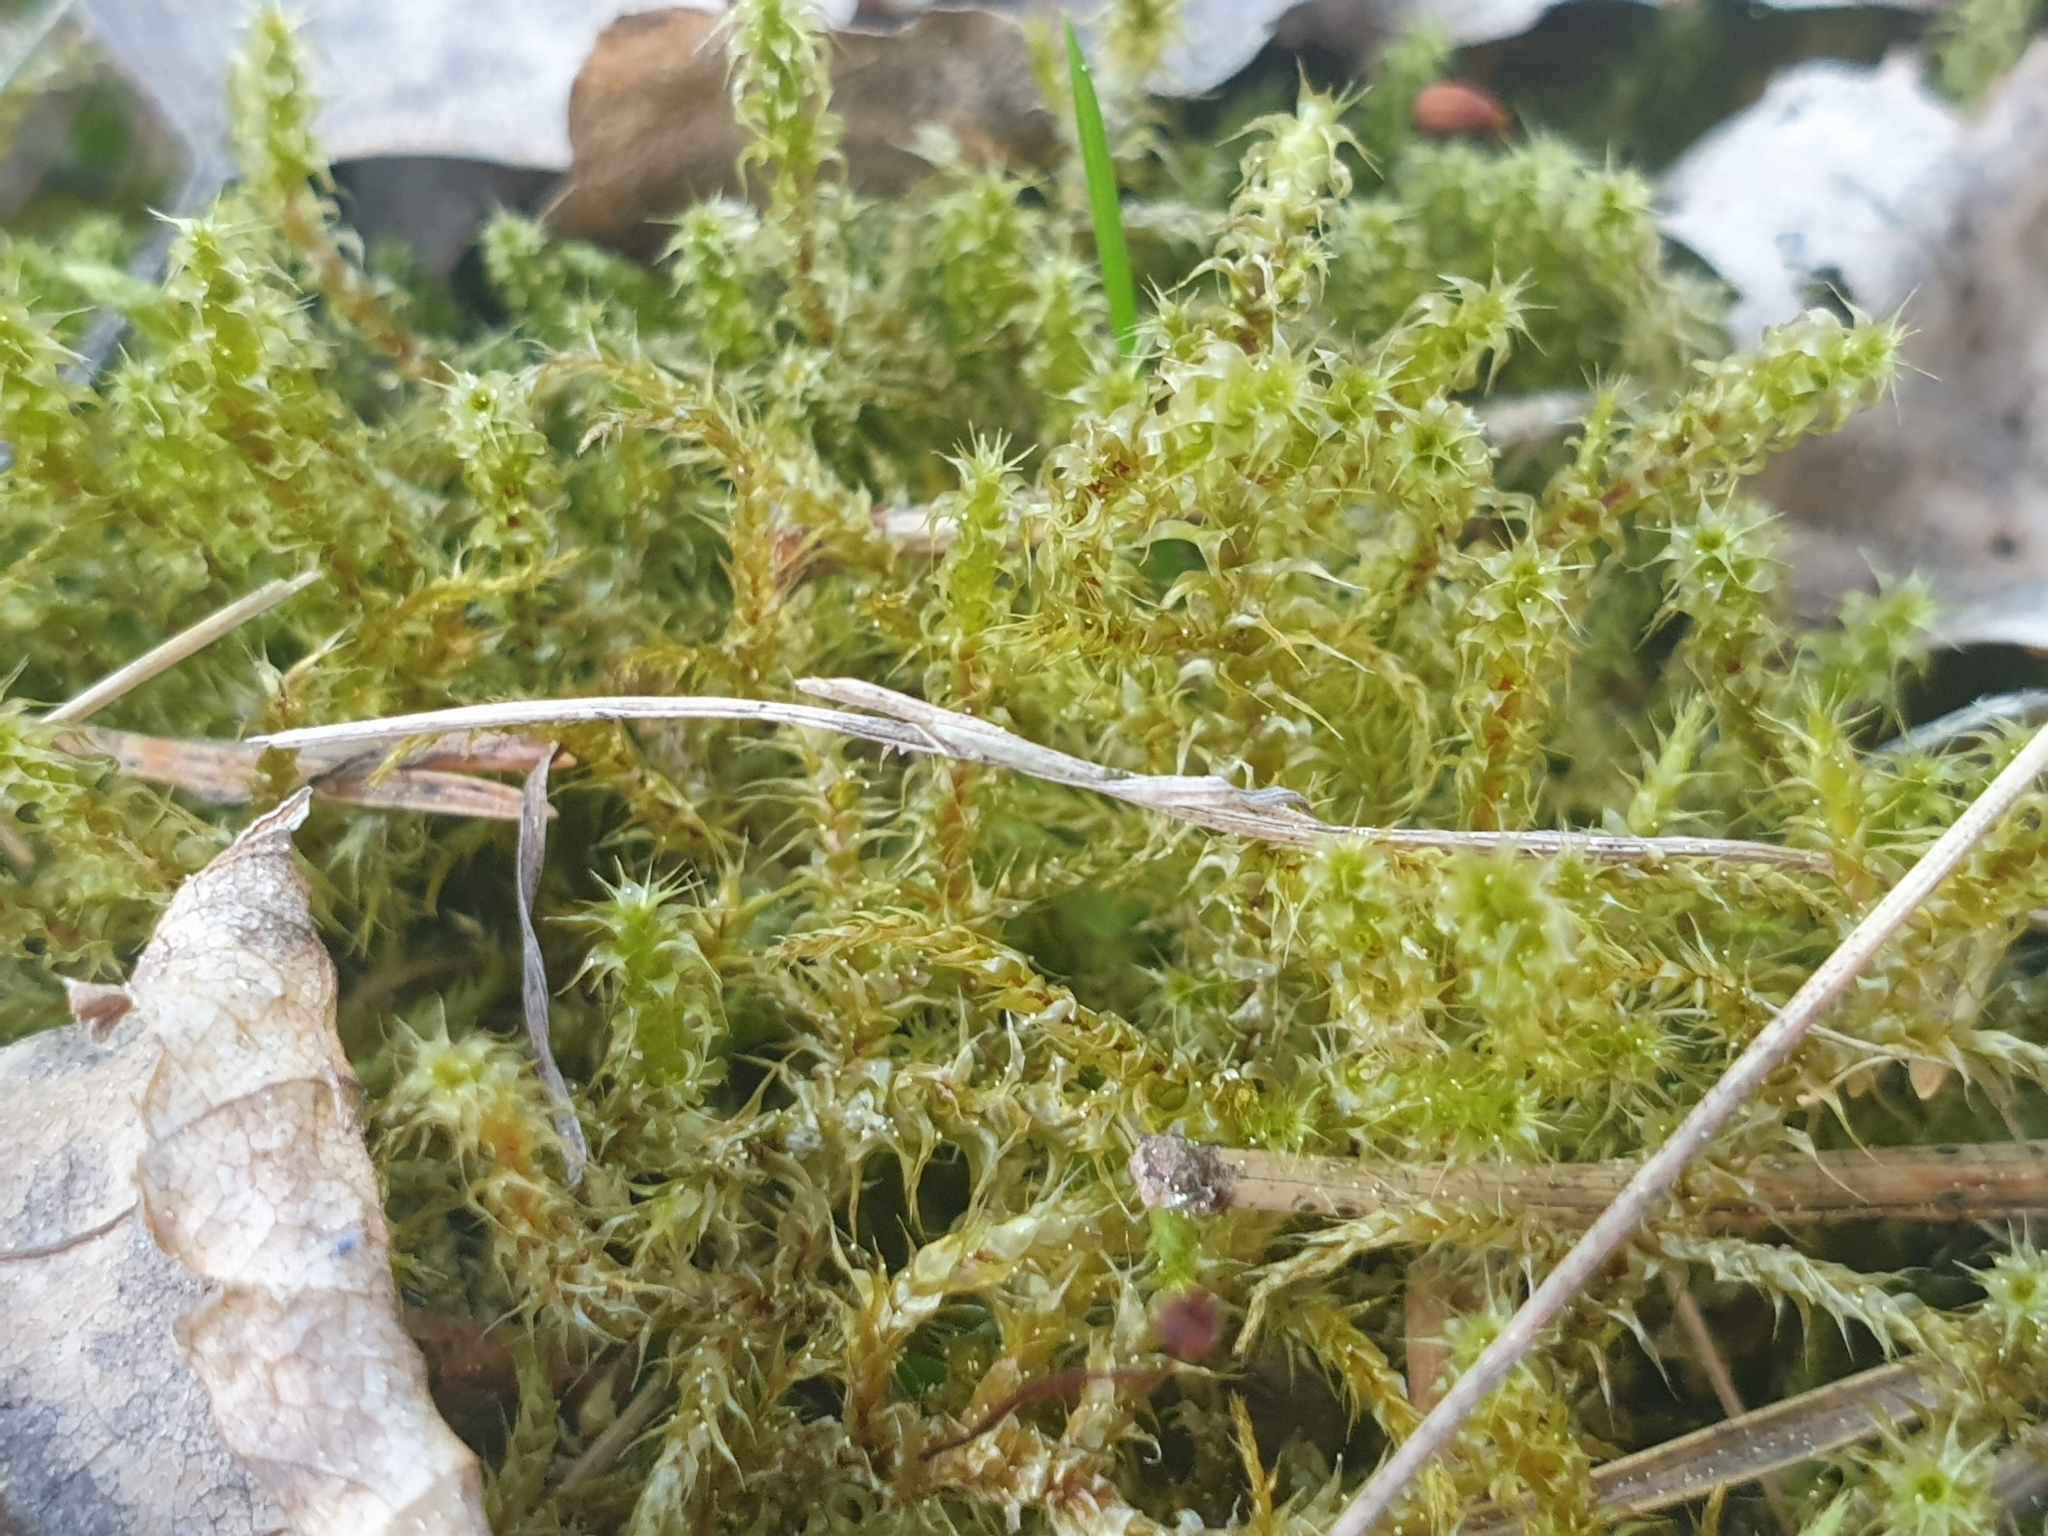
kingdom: Plantae
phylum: Bryophyta
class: Bryopsida
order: Hypnales
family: Hylocomiaceae
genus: Rhytidiadelphus
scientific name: Rhytidiadelphus squarrosus
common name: Springy turf-moss
